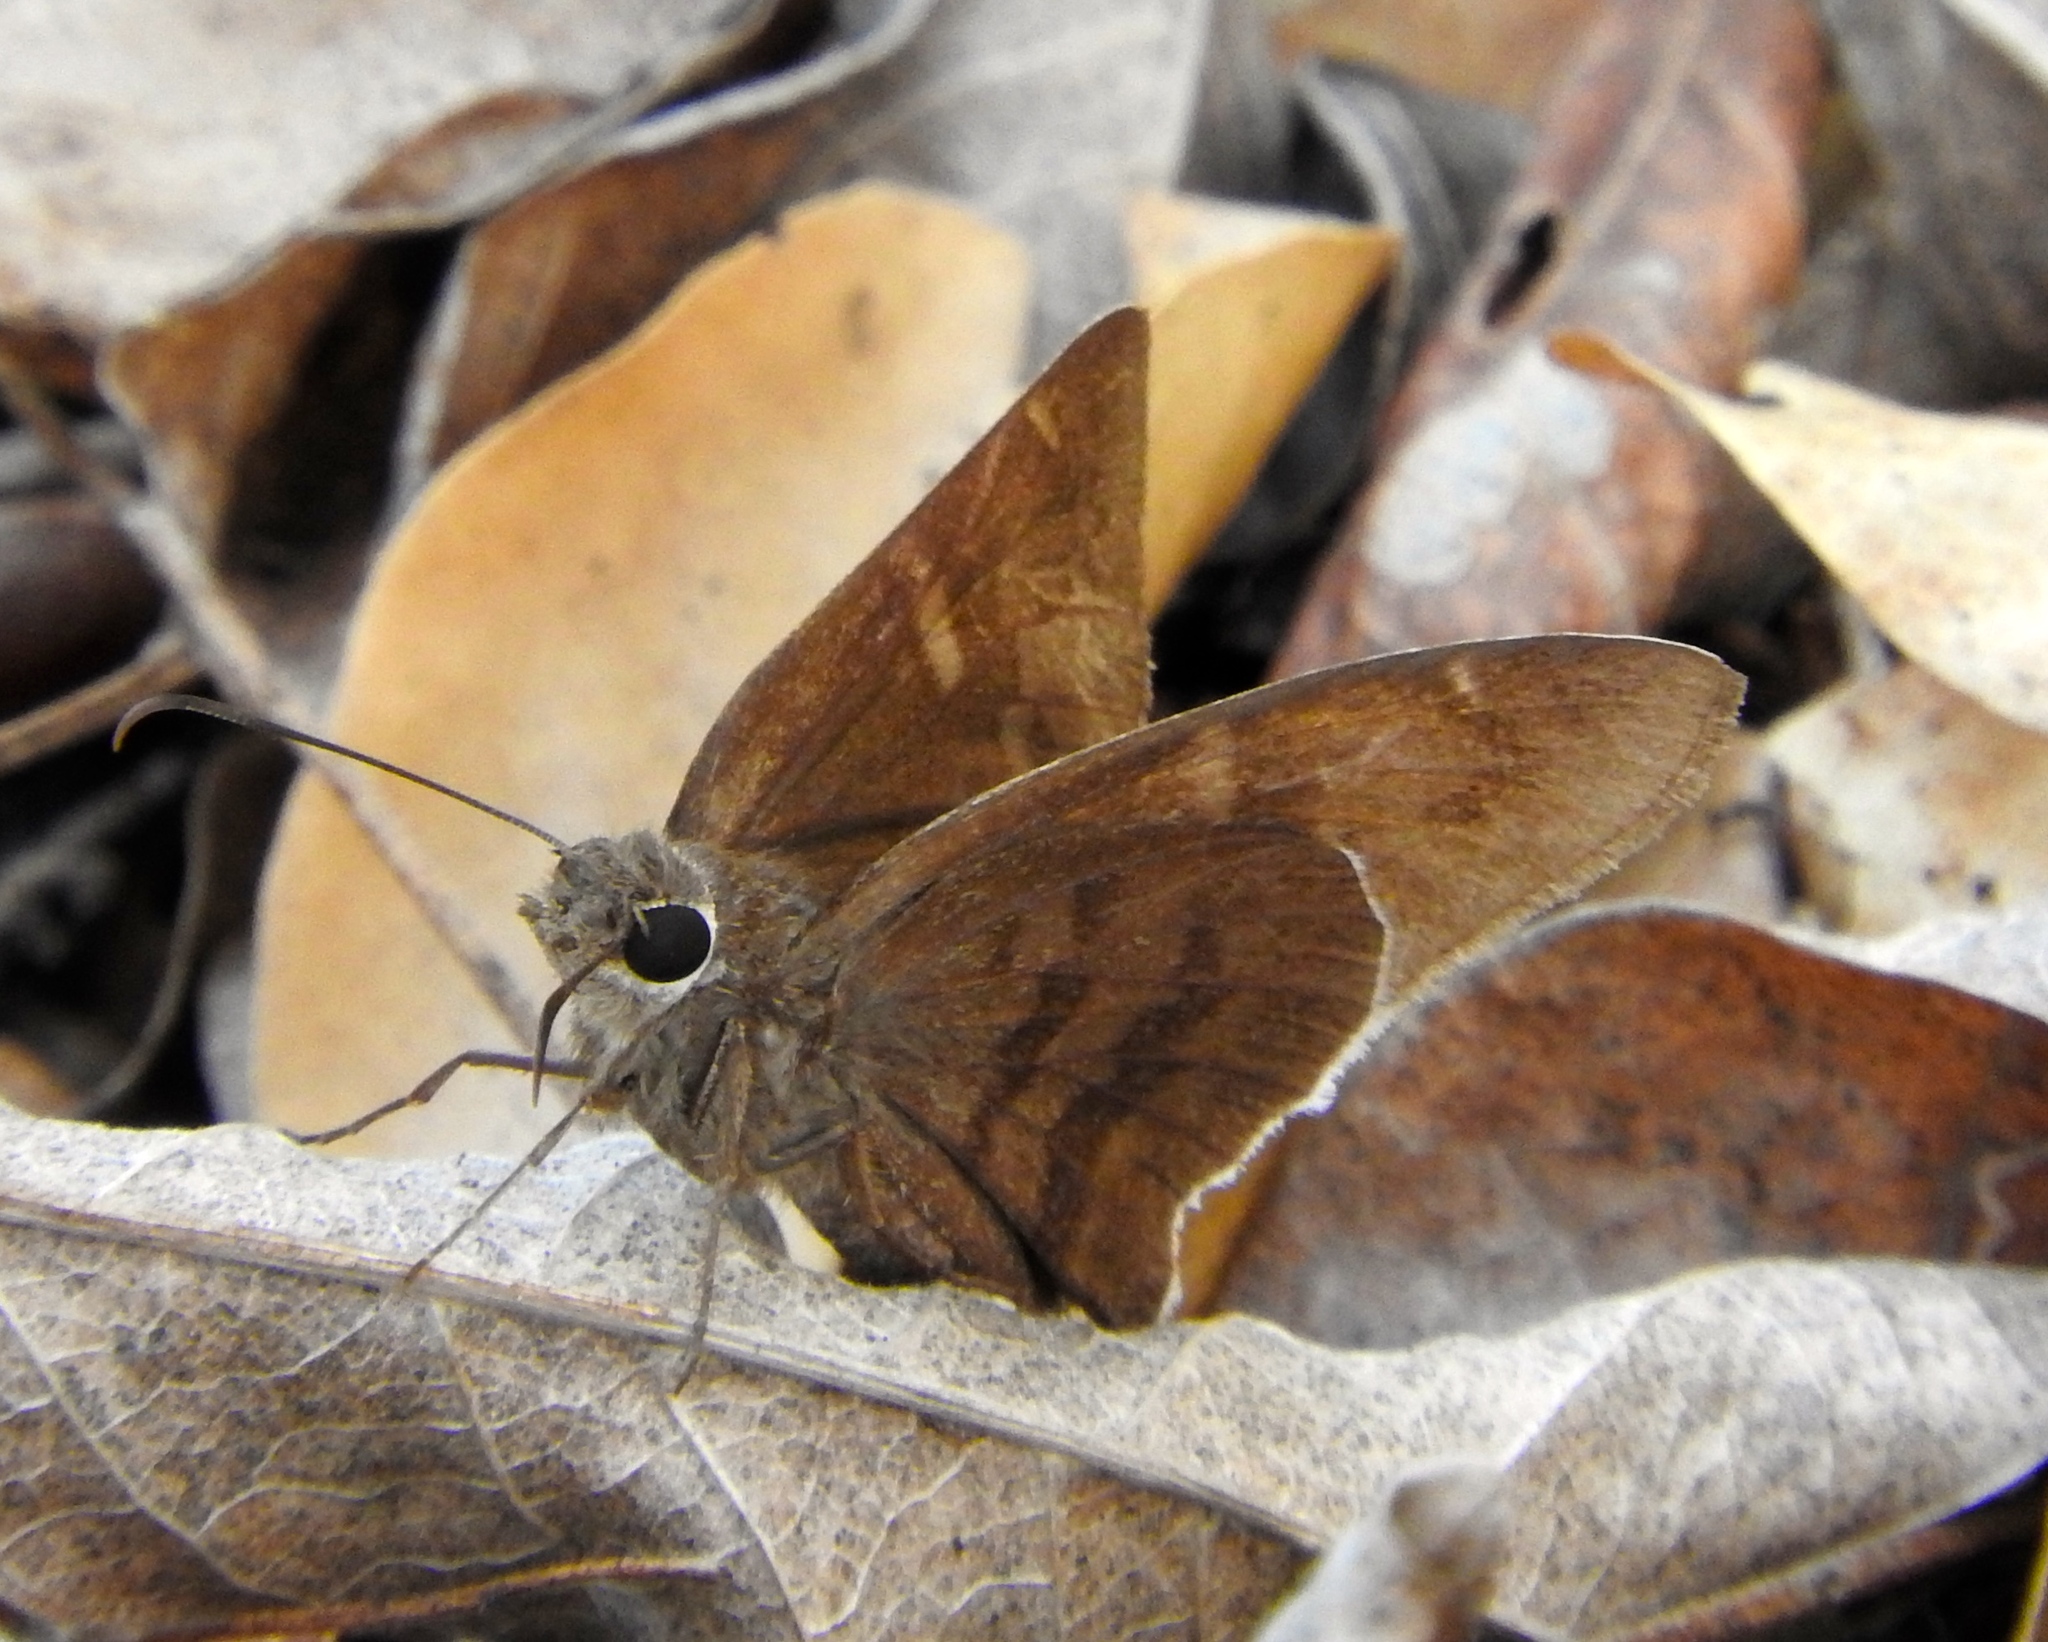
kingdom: Animalia
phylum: Arthropoda
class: Insecta
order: Lepidoptera
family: Hesperiidae
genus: Achalarus
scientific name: Achalarus Murgaria albociliatus
